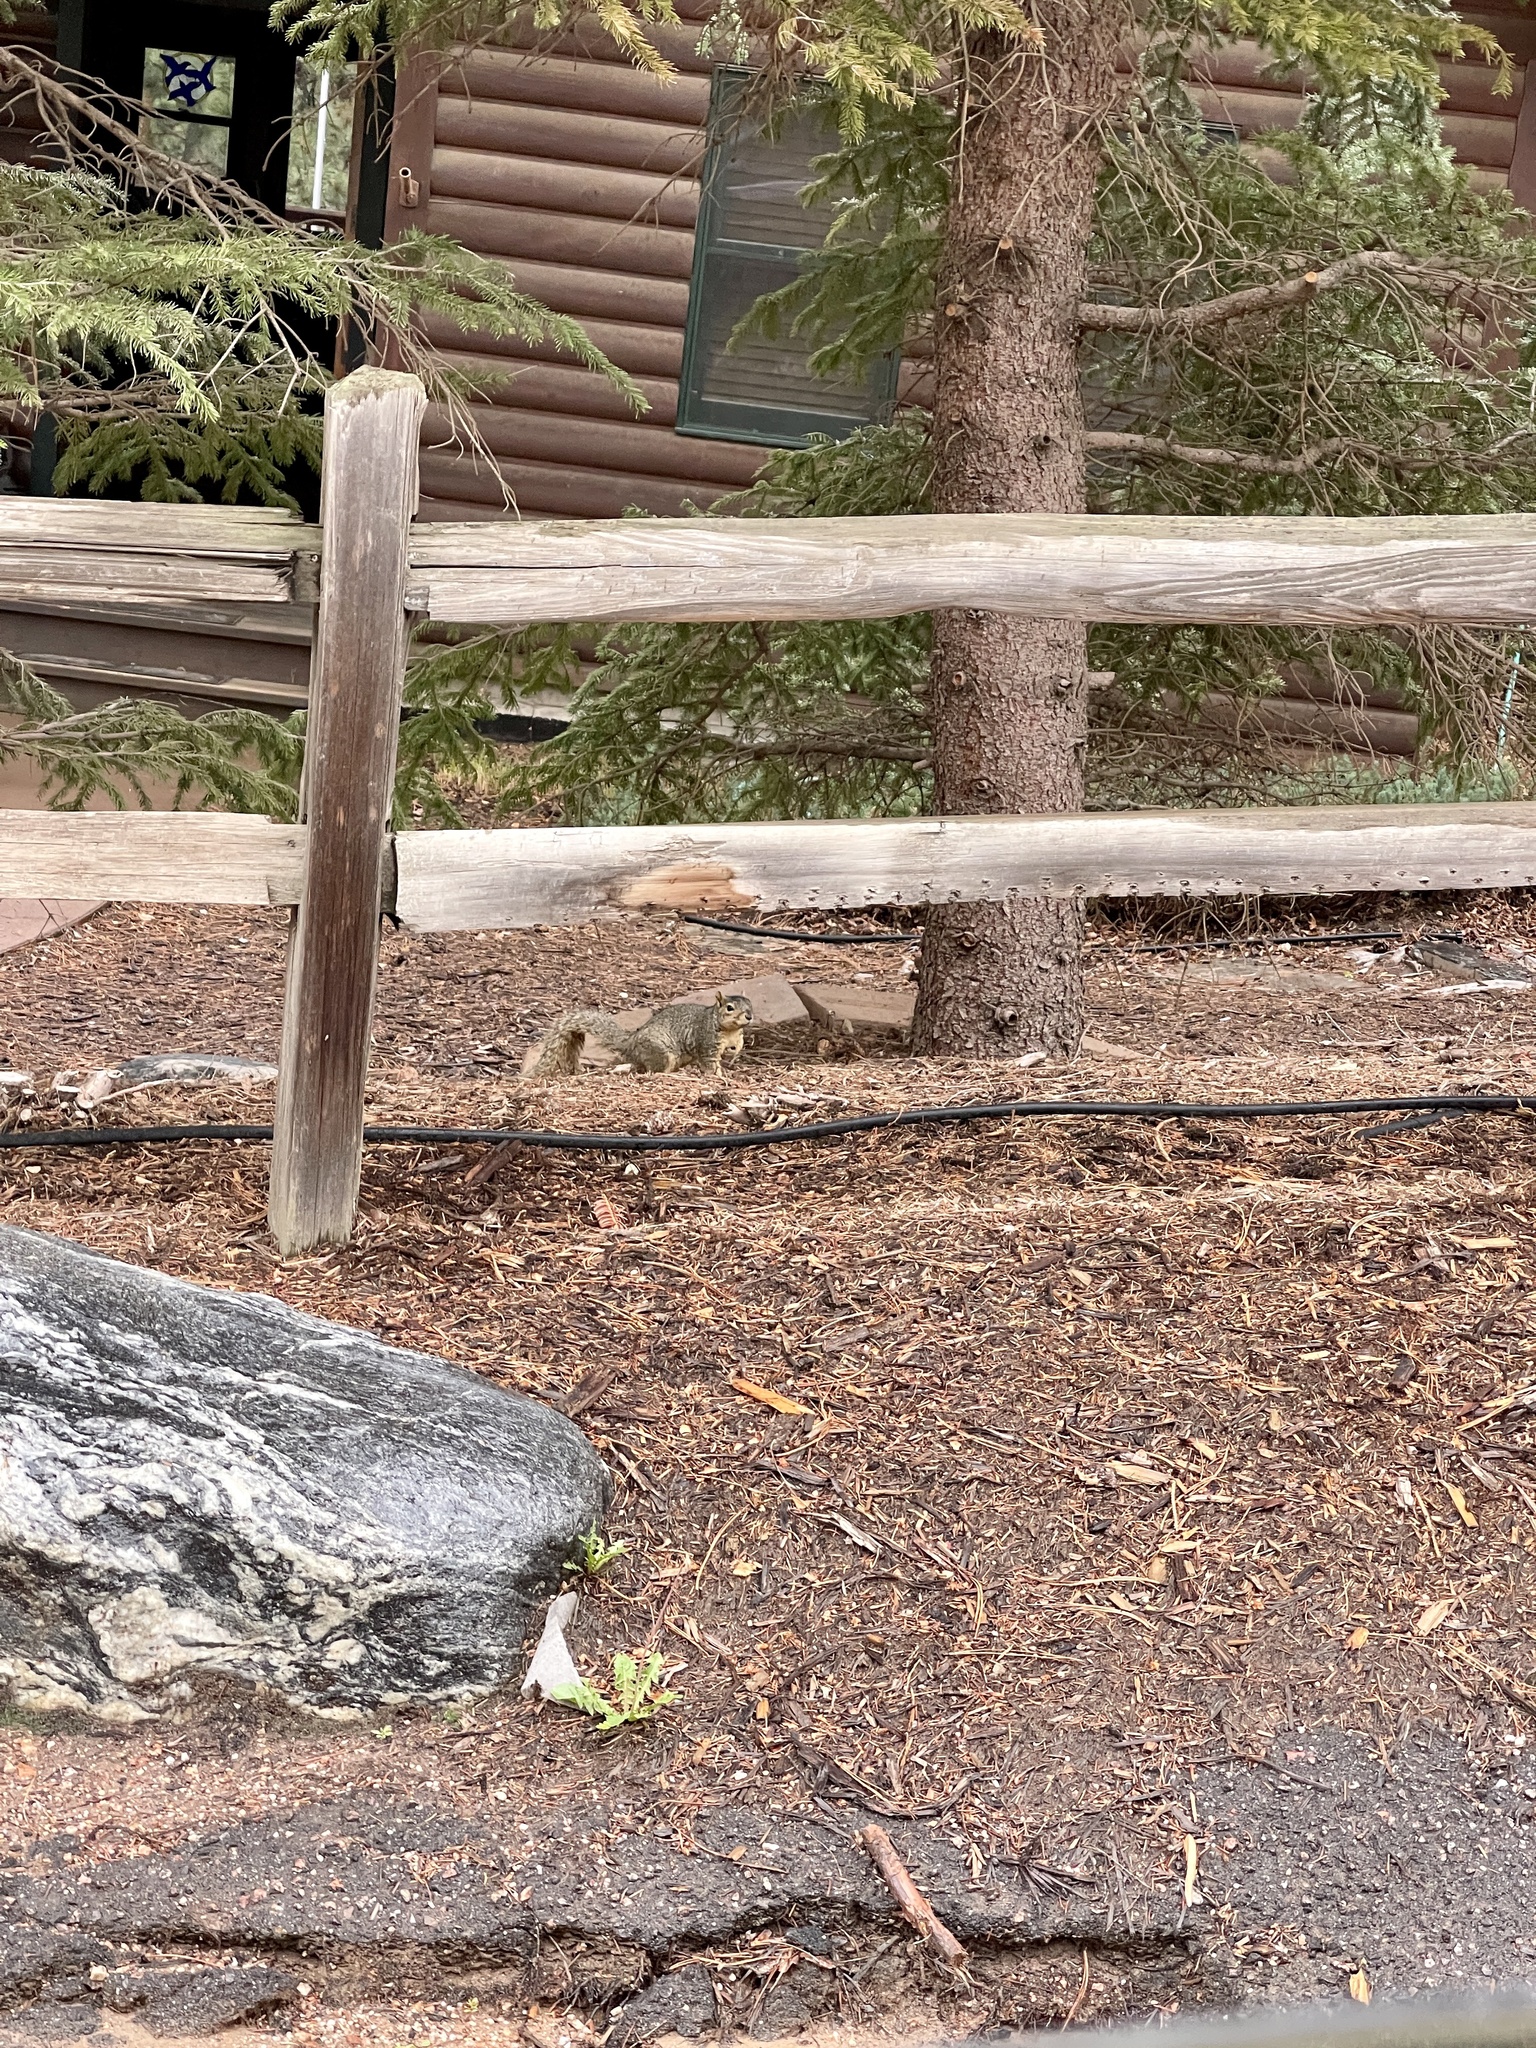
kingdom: Animalia
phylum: Chordata
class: Mammalia
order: Rodentia
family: Sciuridae
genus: Sciurus
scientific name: Sciurus niger
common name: Fox squirrel
